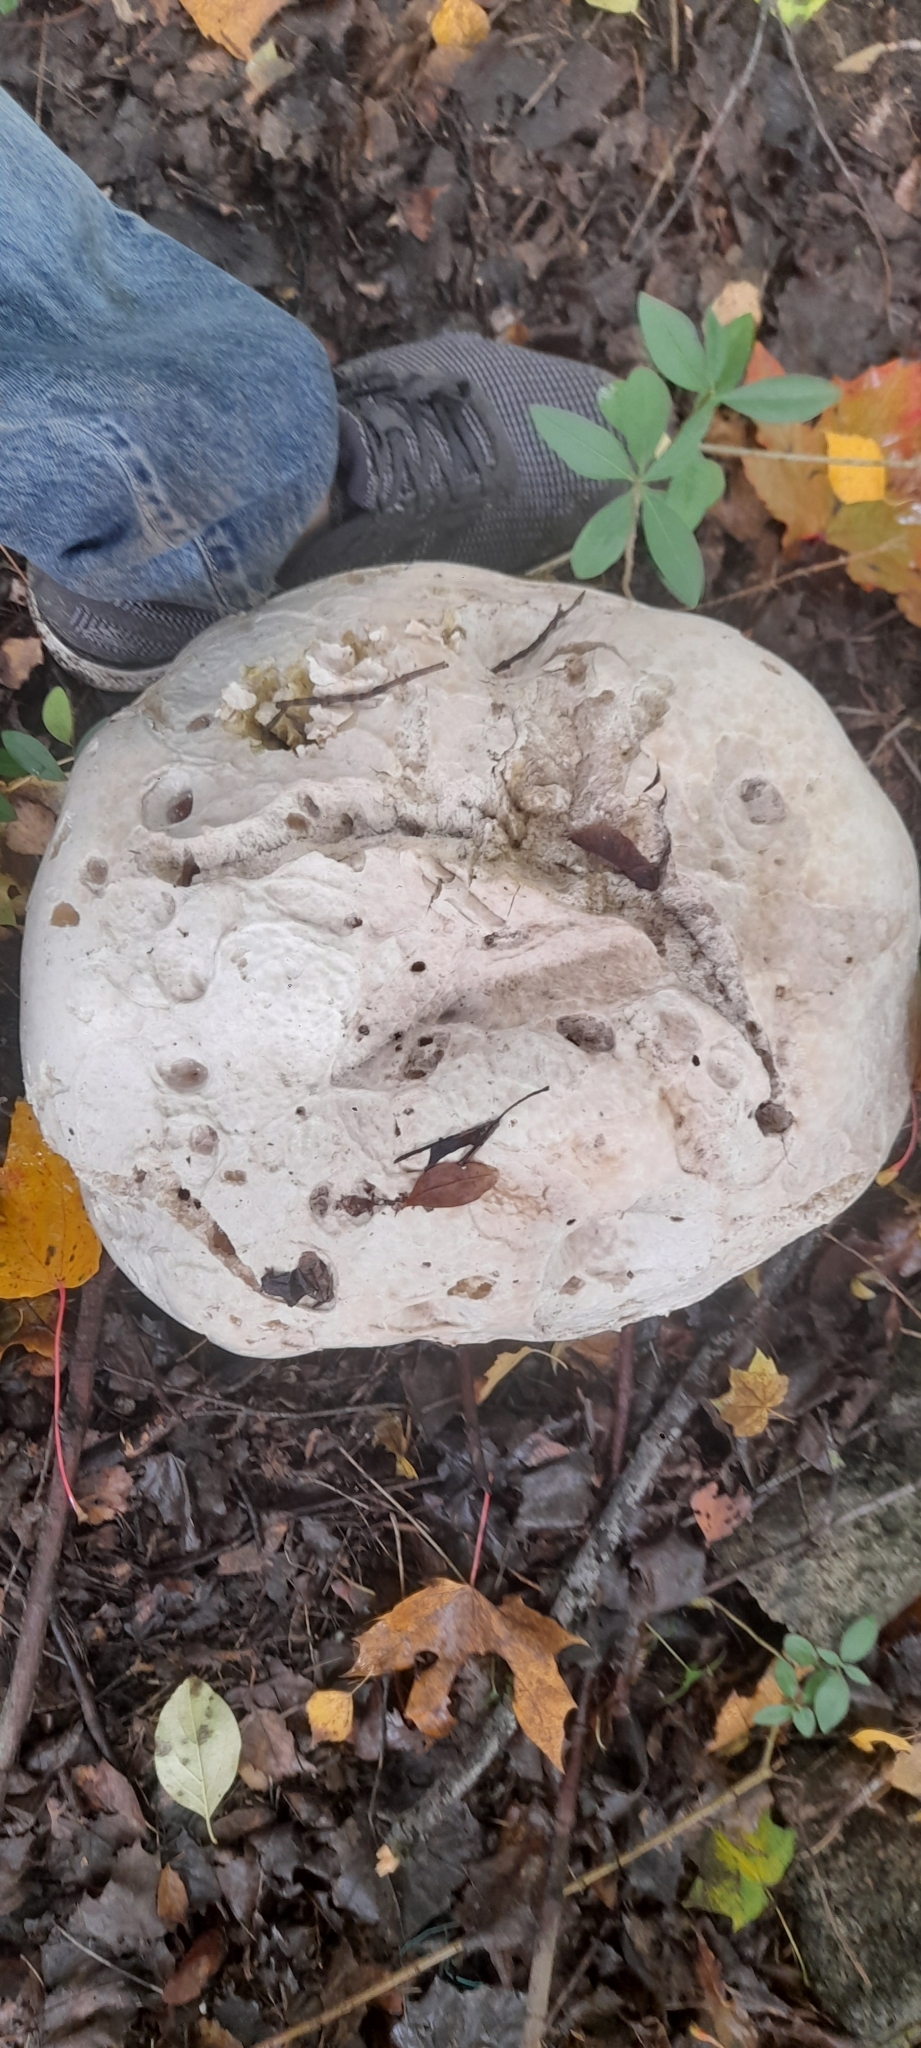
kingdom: Fungi
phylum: Basidiomycota
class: Agaricomycetes
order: Agaricales
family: Lycoperdaceae
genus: Calvatia
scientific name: Calvatia gigantea
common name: Giant puffball
